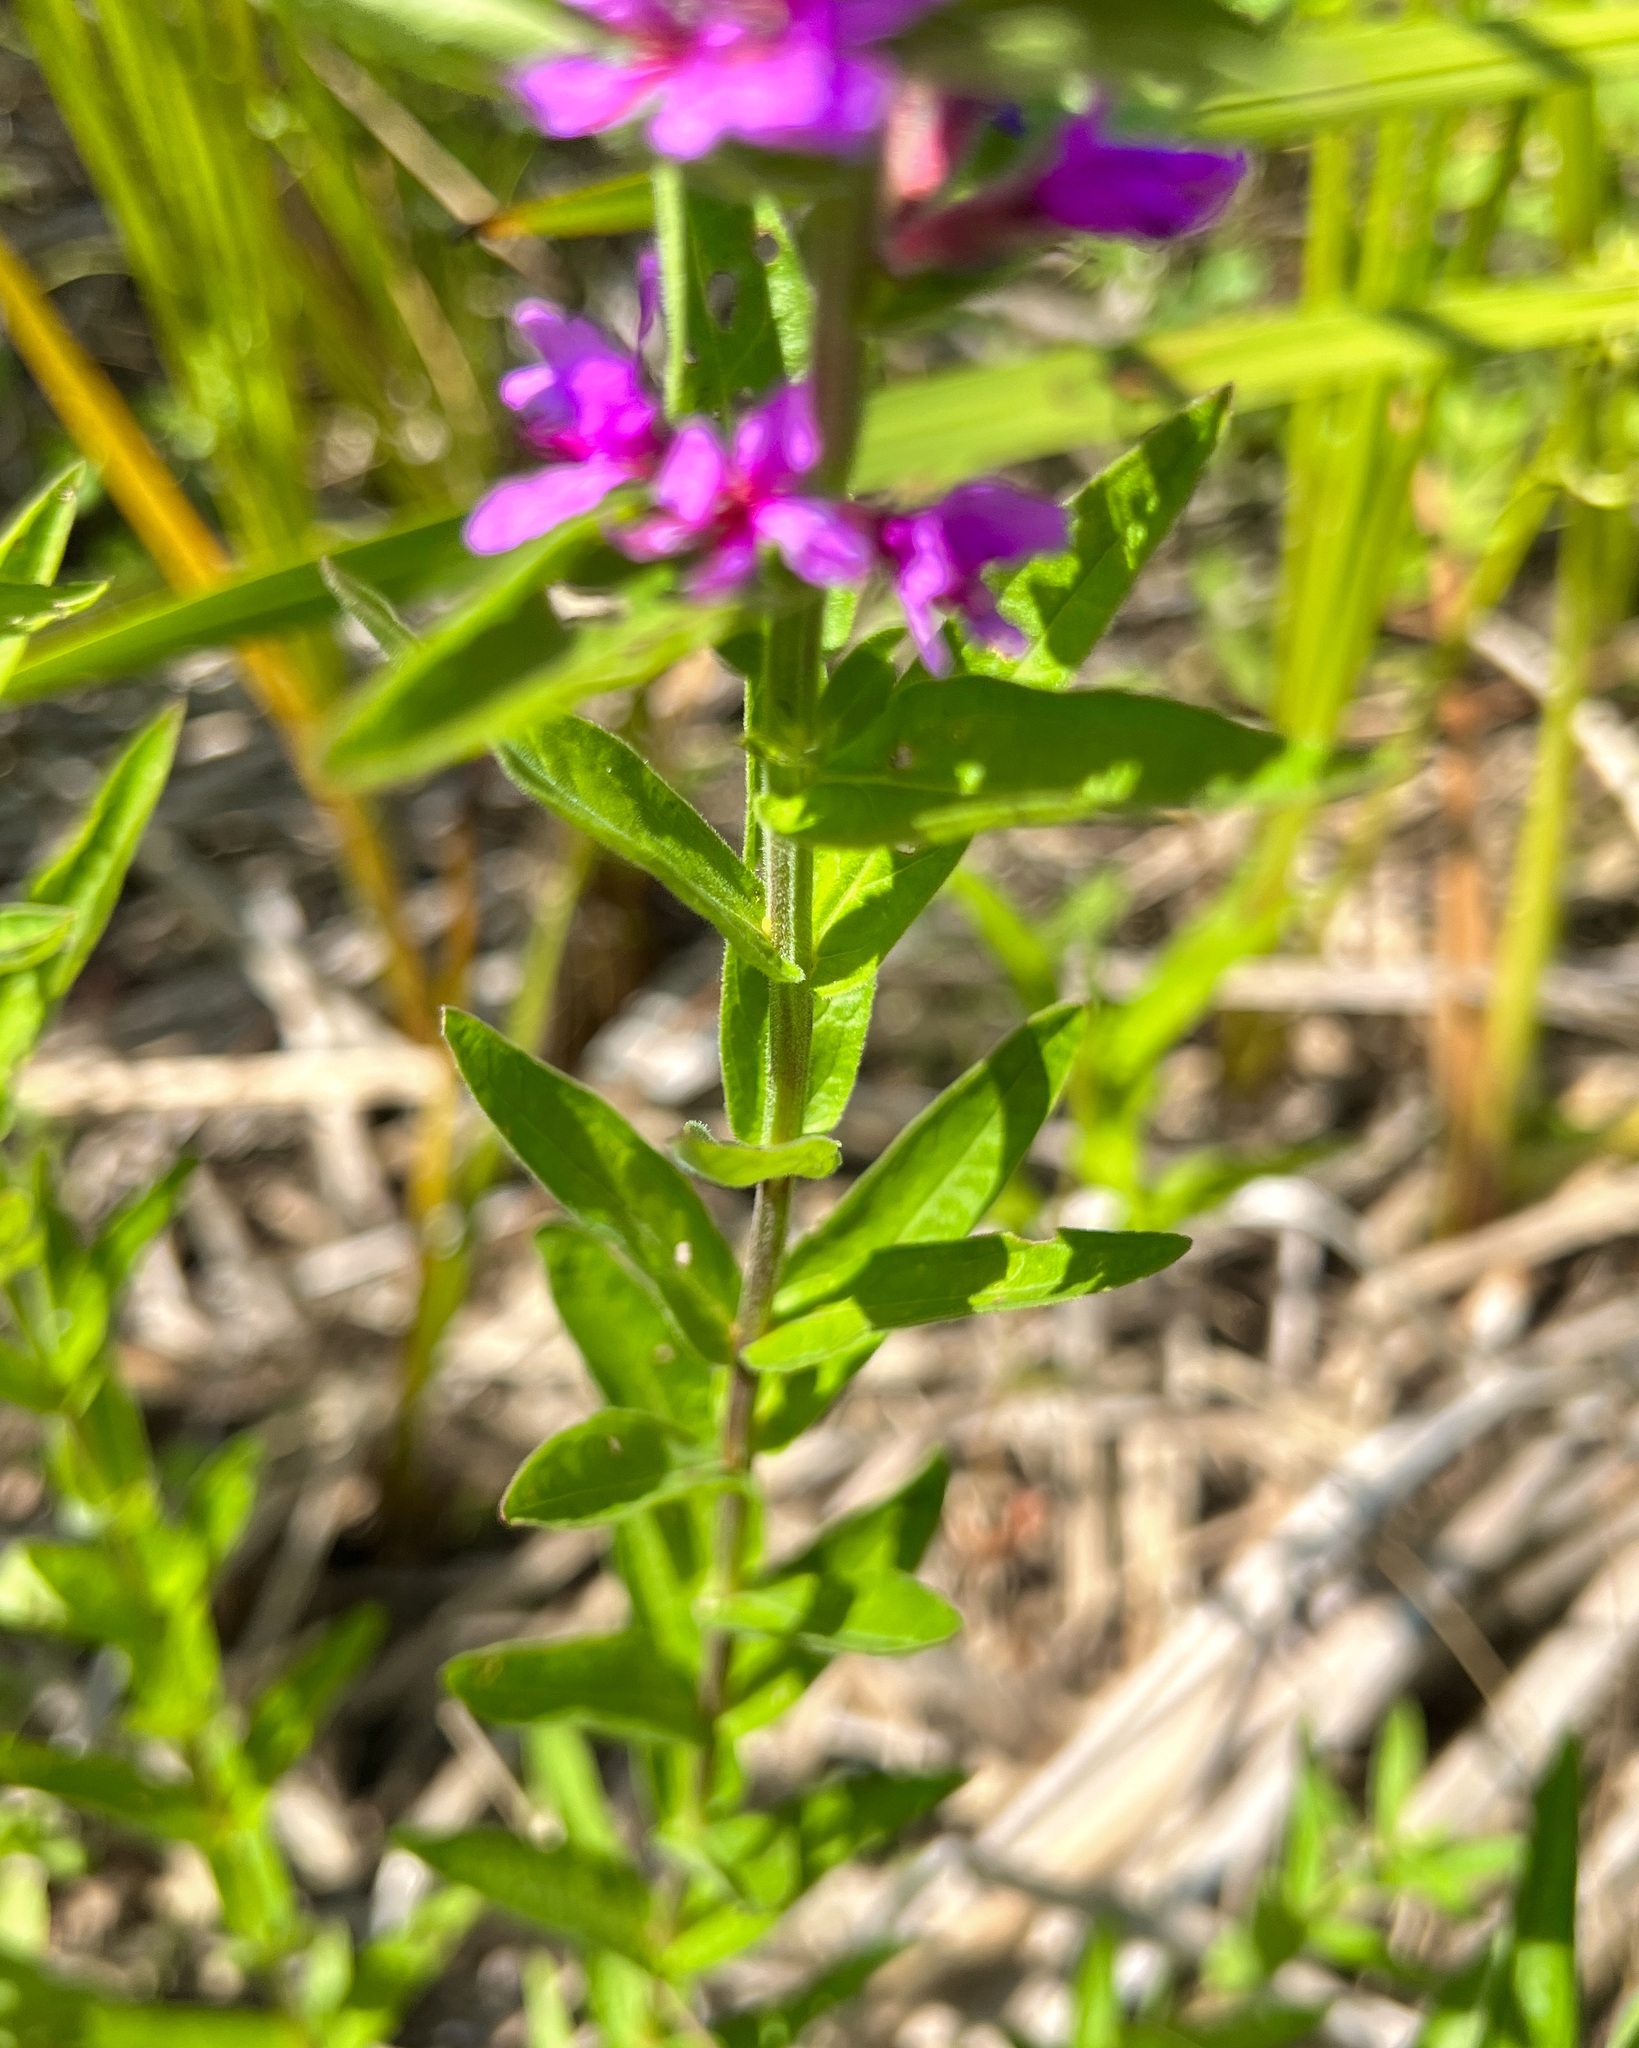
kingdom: Plantae
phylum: Tracheophyta
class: Magnoliopsida
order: Myrtales
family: Lythraceae
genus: Lythrum
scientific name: Lythrum salicaria
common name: Purple loosestrife
